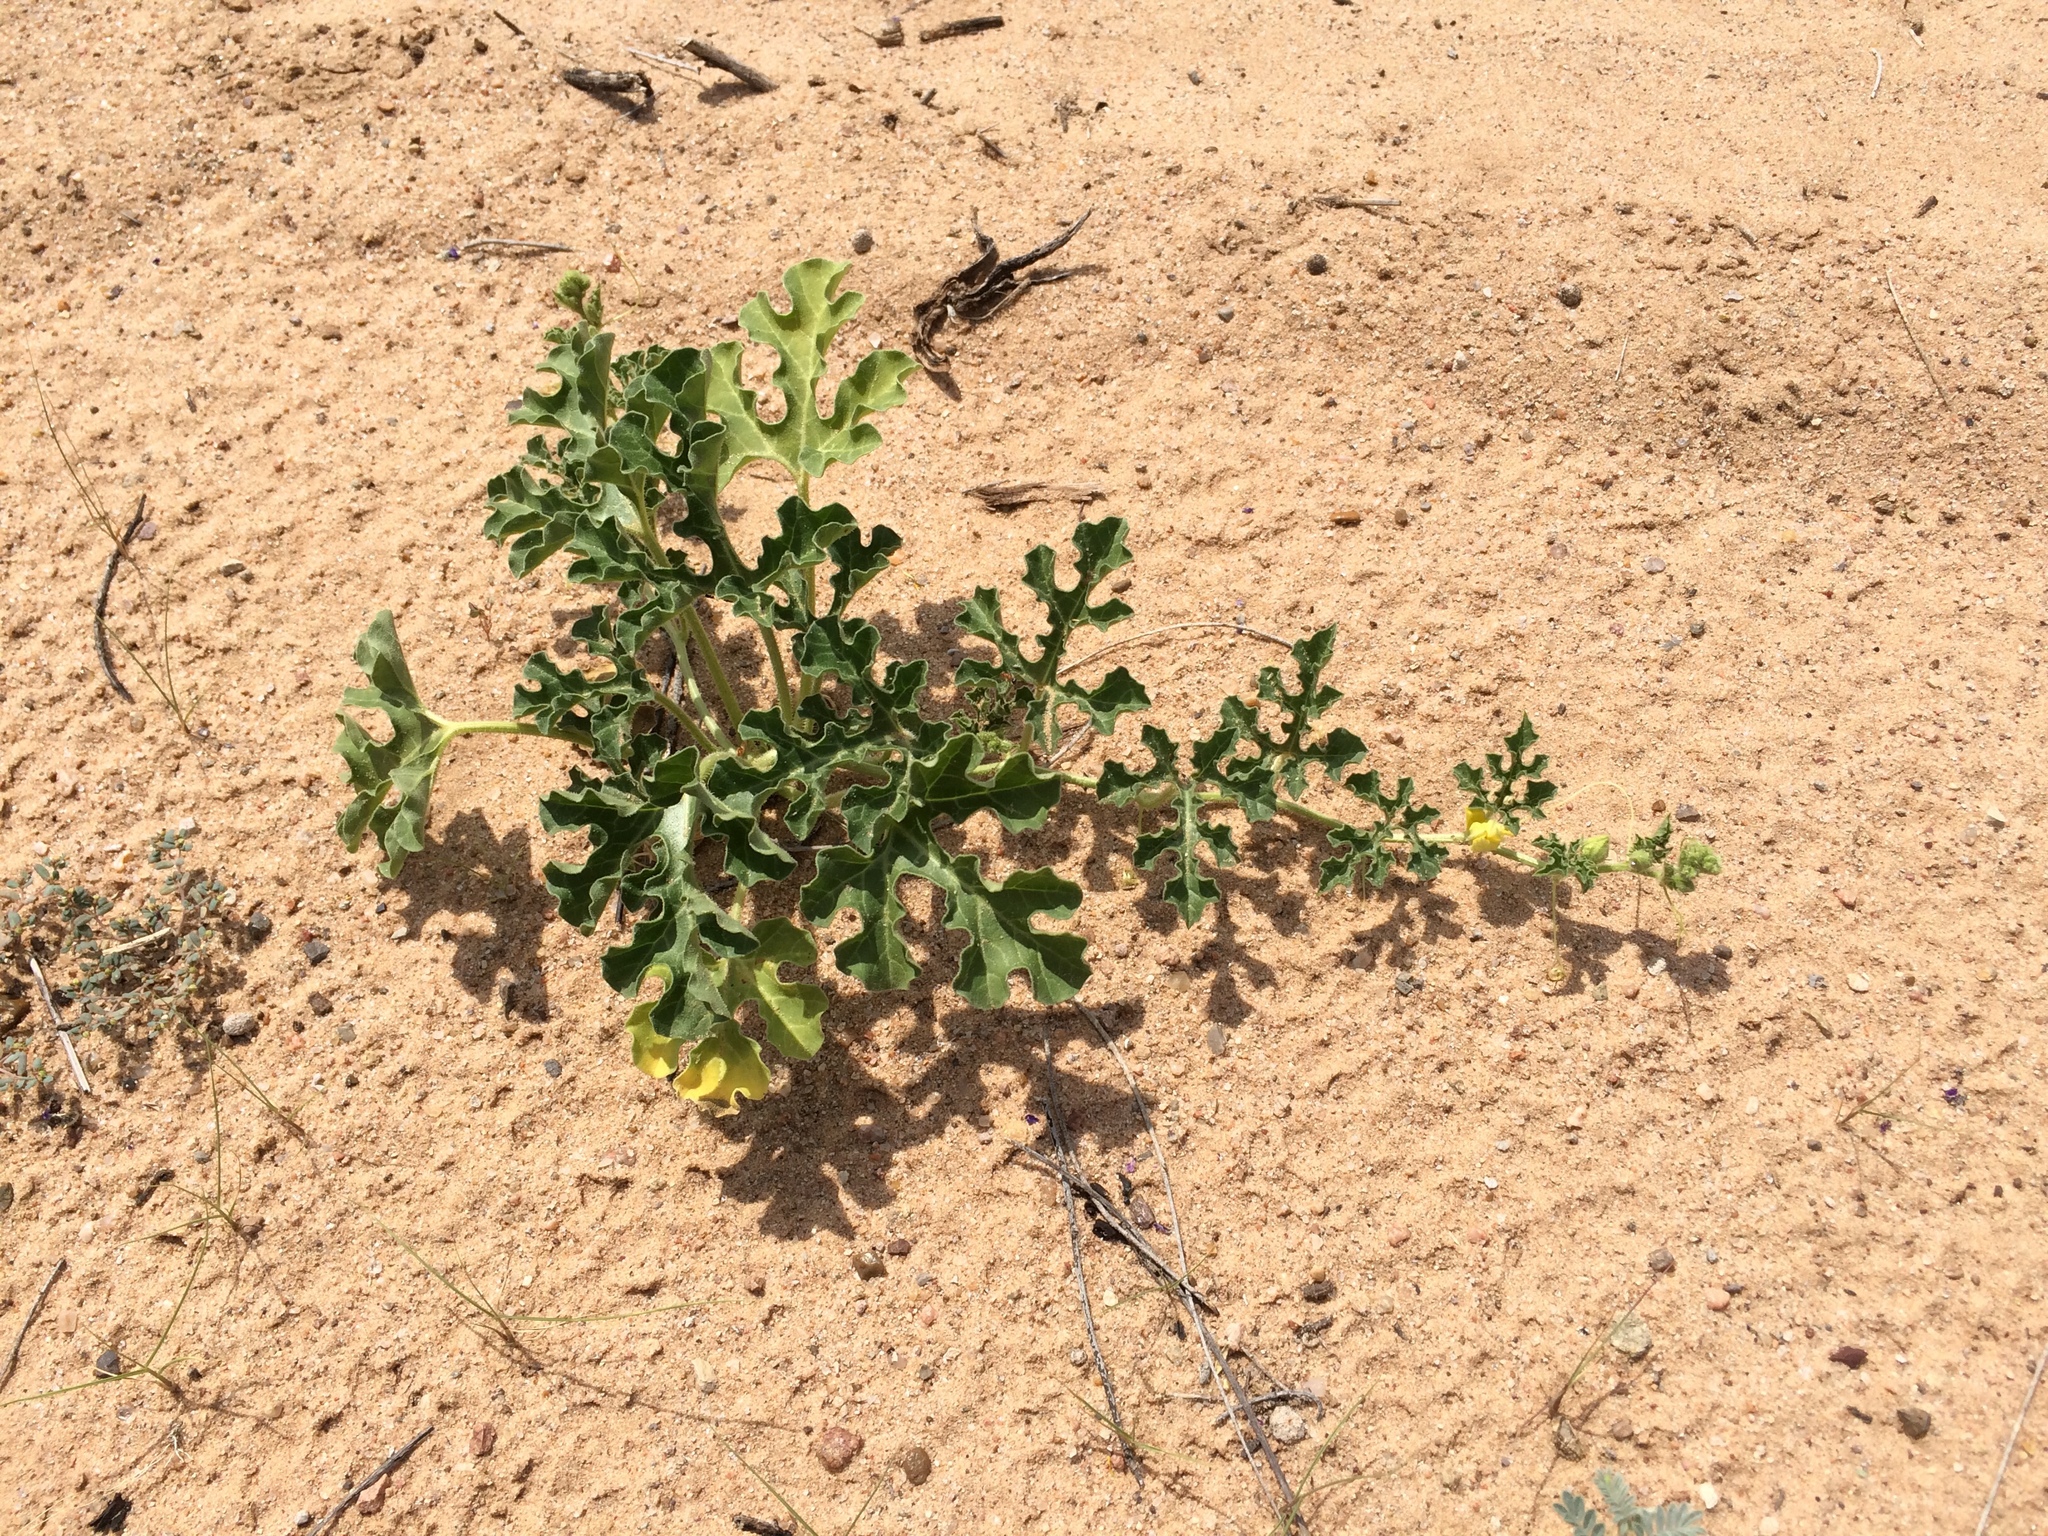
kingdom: Plantae
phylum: Tracheophyta
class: Magnoliopsida
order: Cucurbitales
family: Cucurbitaceae
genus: Citrullus
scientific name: Citrullus lanatus
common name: Watermelon
